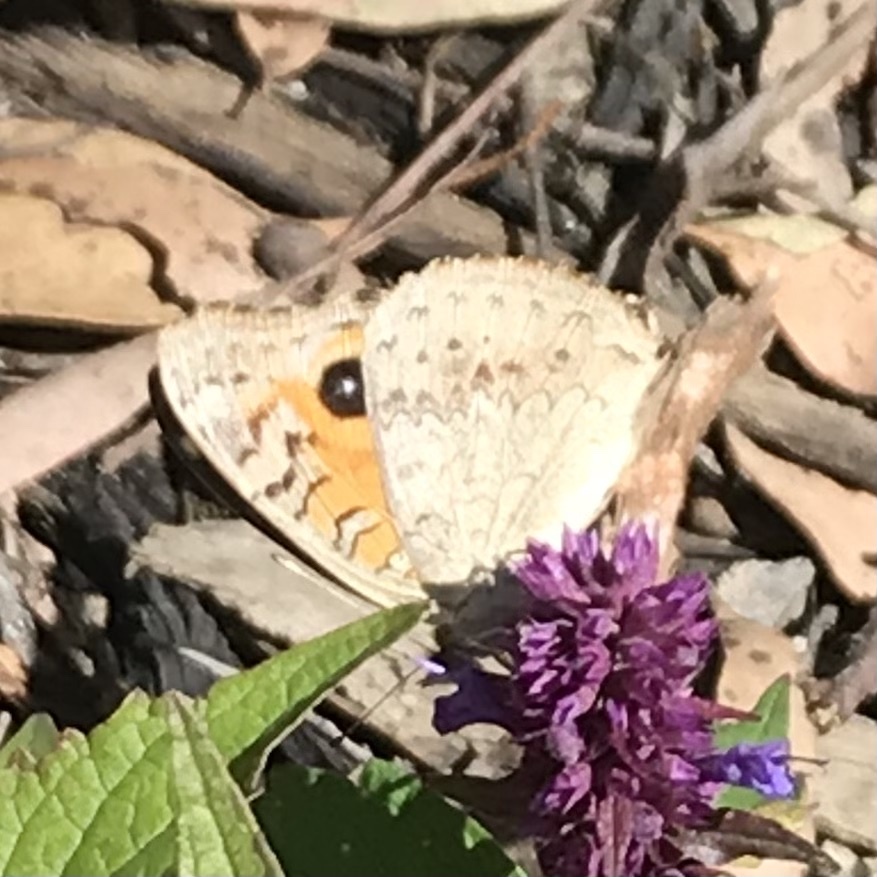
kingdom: Animalia
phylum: Arthropoda
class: Insecta
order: Lepidoptera
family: Nymphalidae
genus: Junonia
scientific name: Junonia villida
